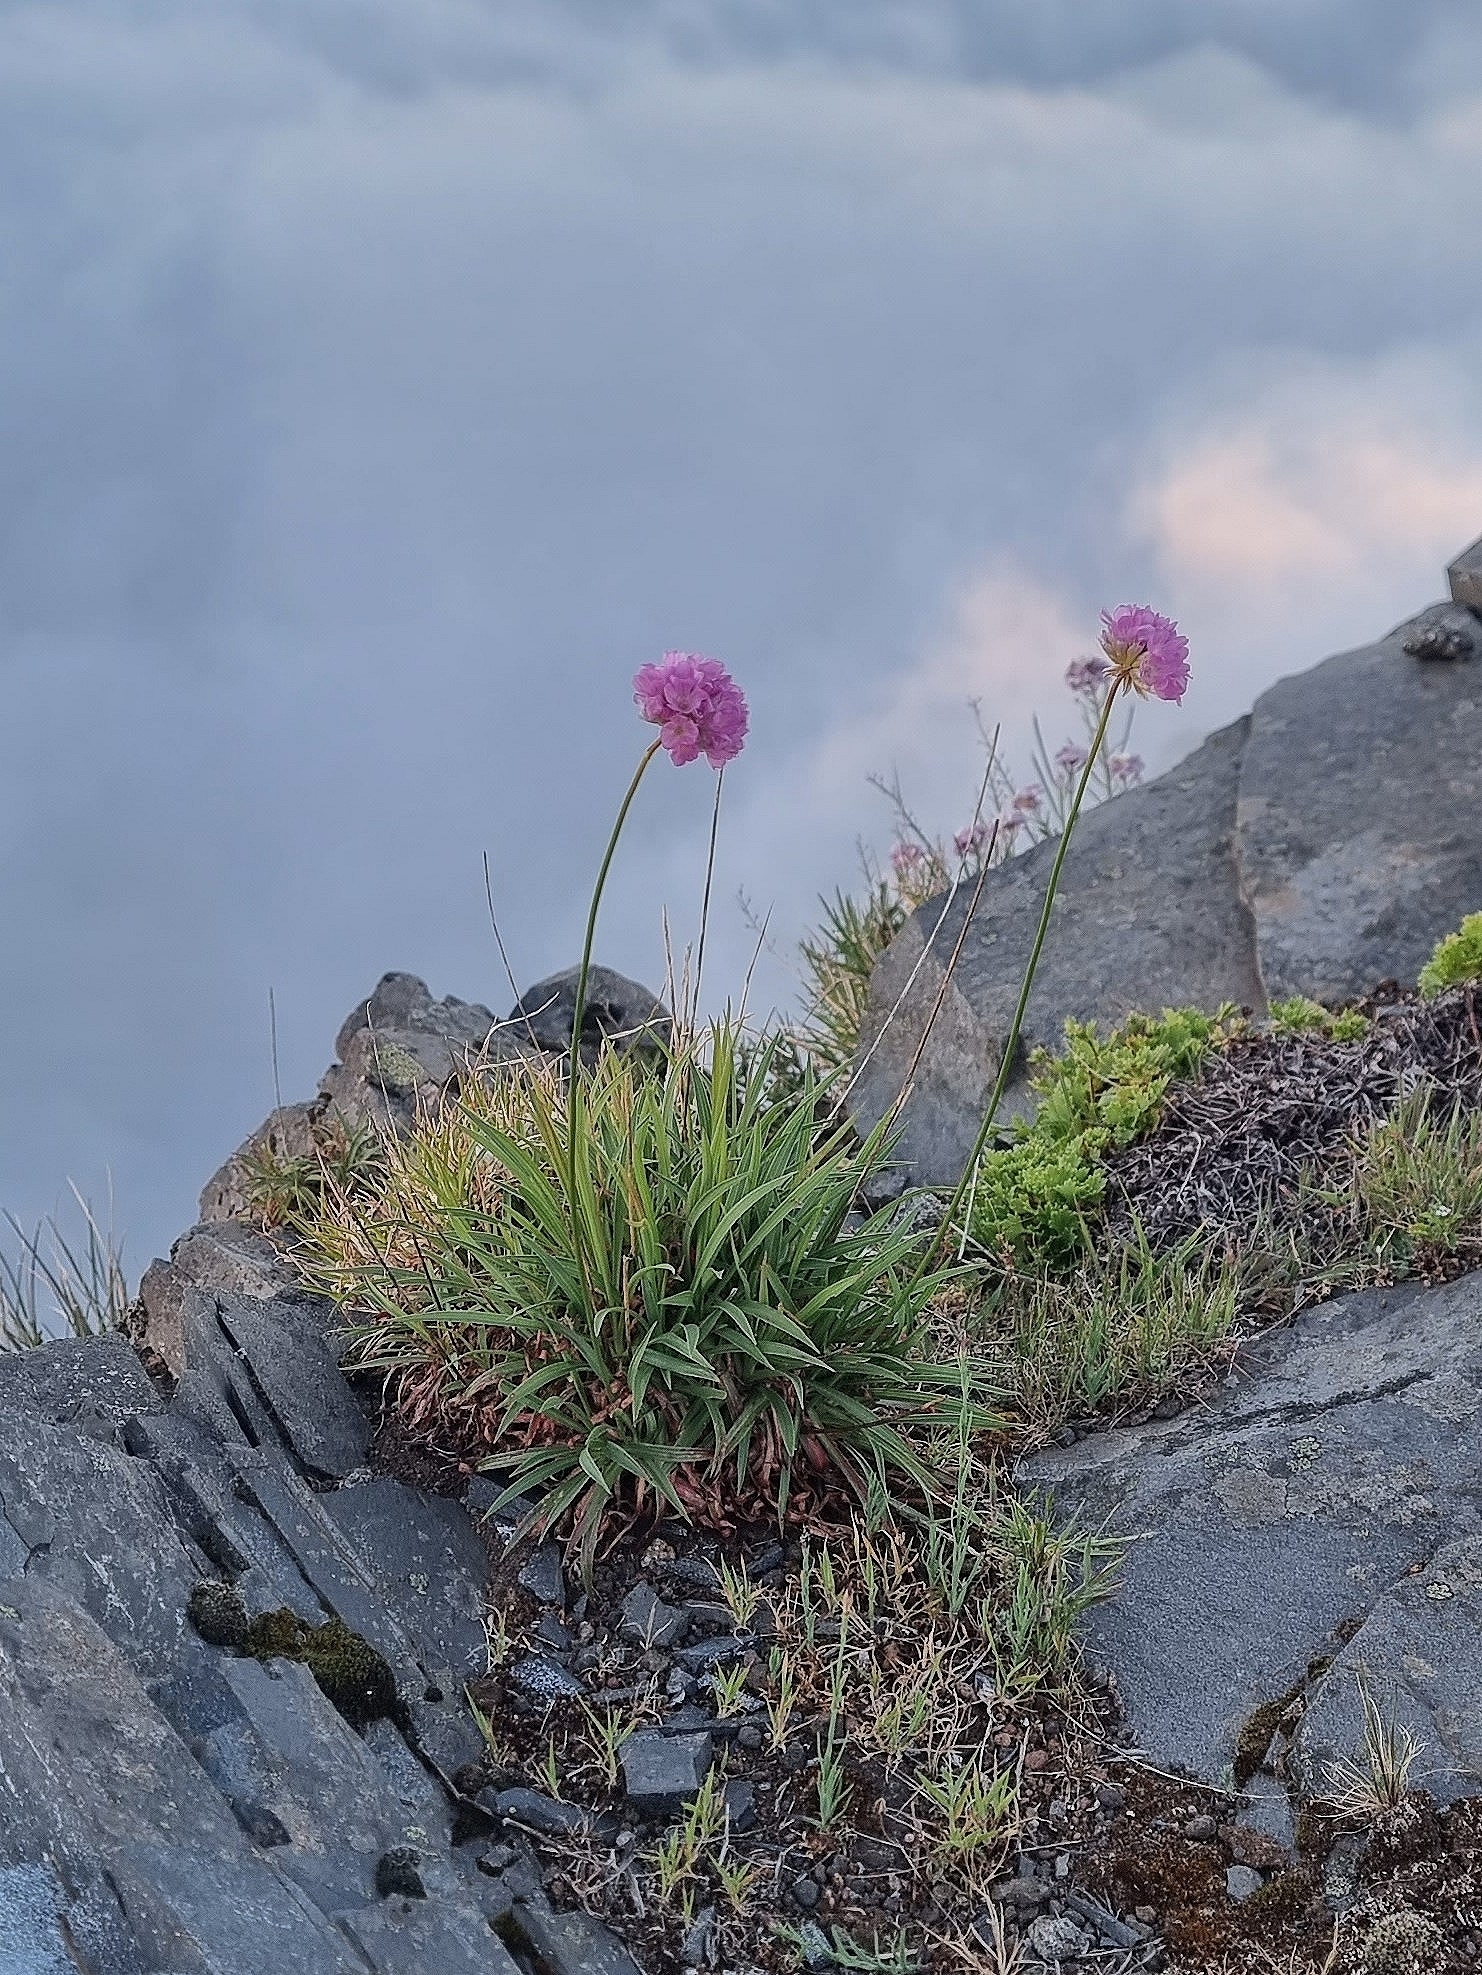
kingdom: Plantae
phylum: Tracheophyta
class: Magnoliopsida
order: Caryophyllales
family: Plumbaginaceae
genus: Armeria
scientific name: Armeria maderensis
